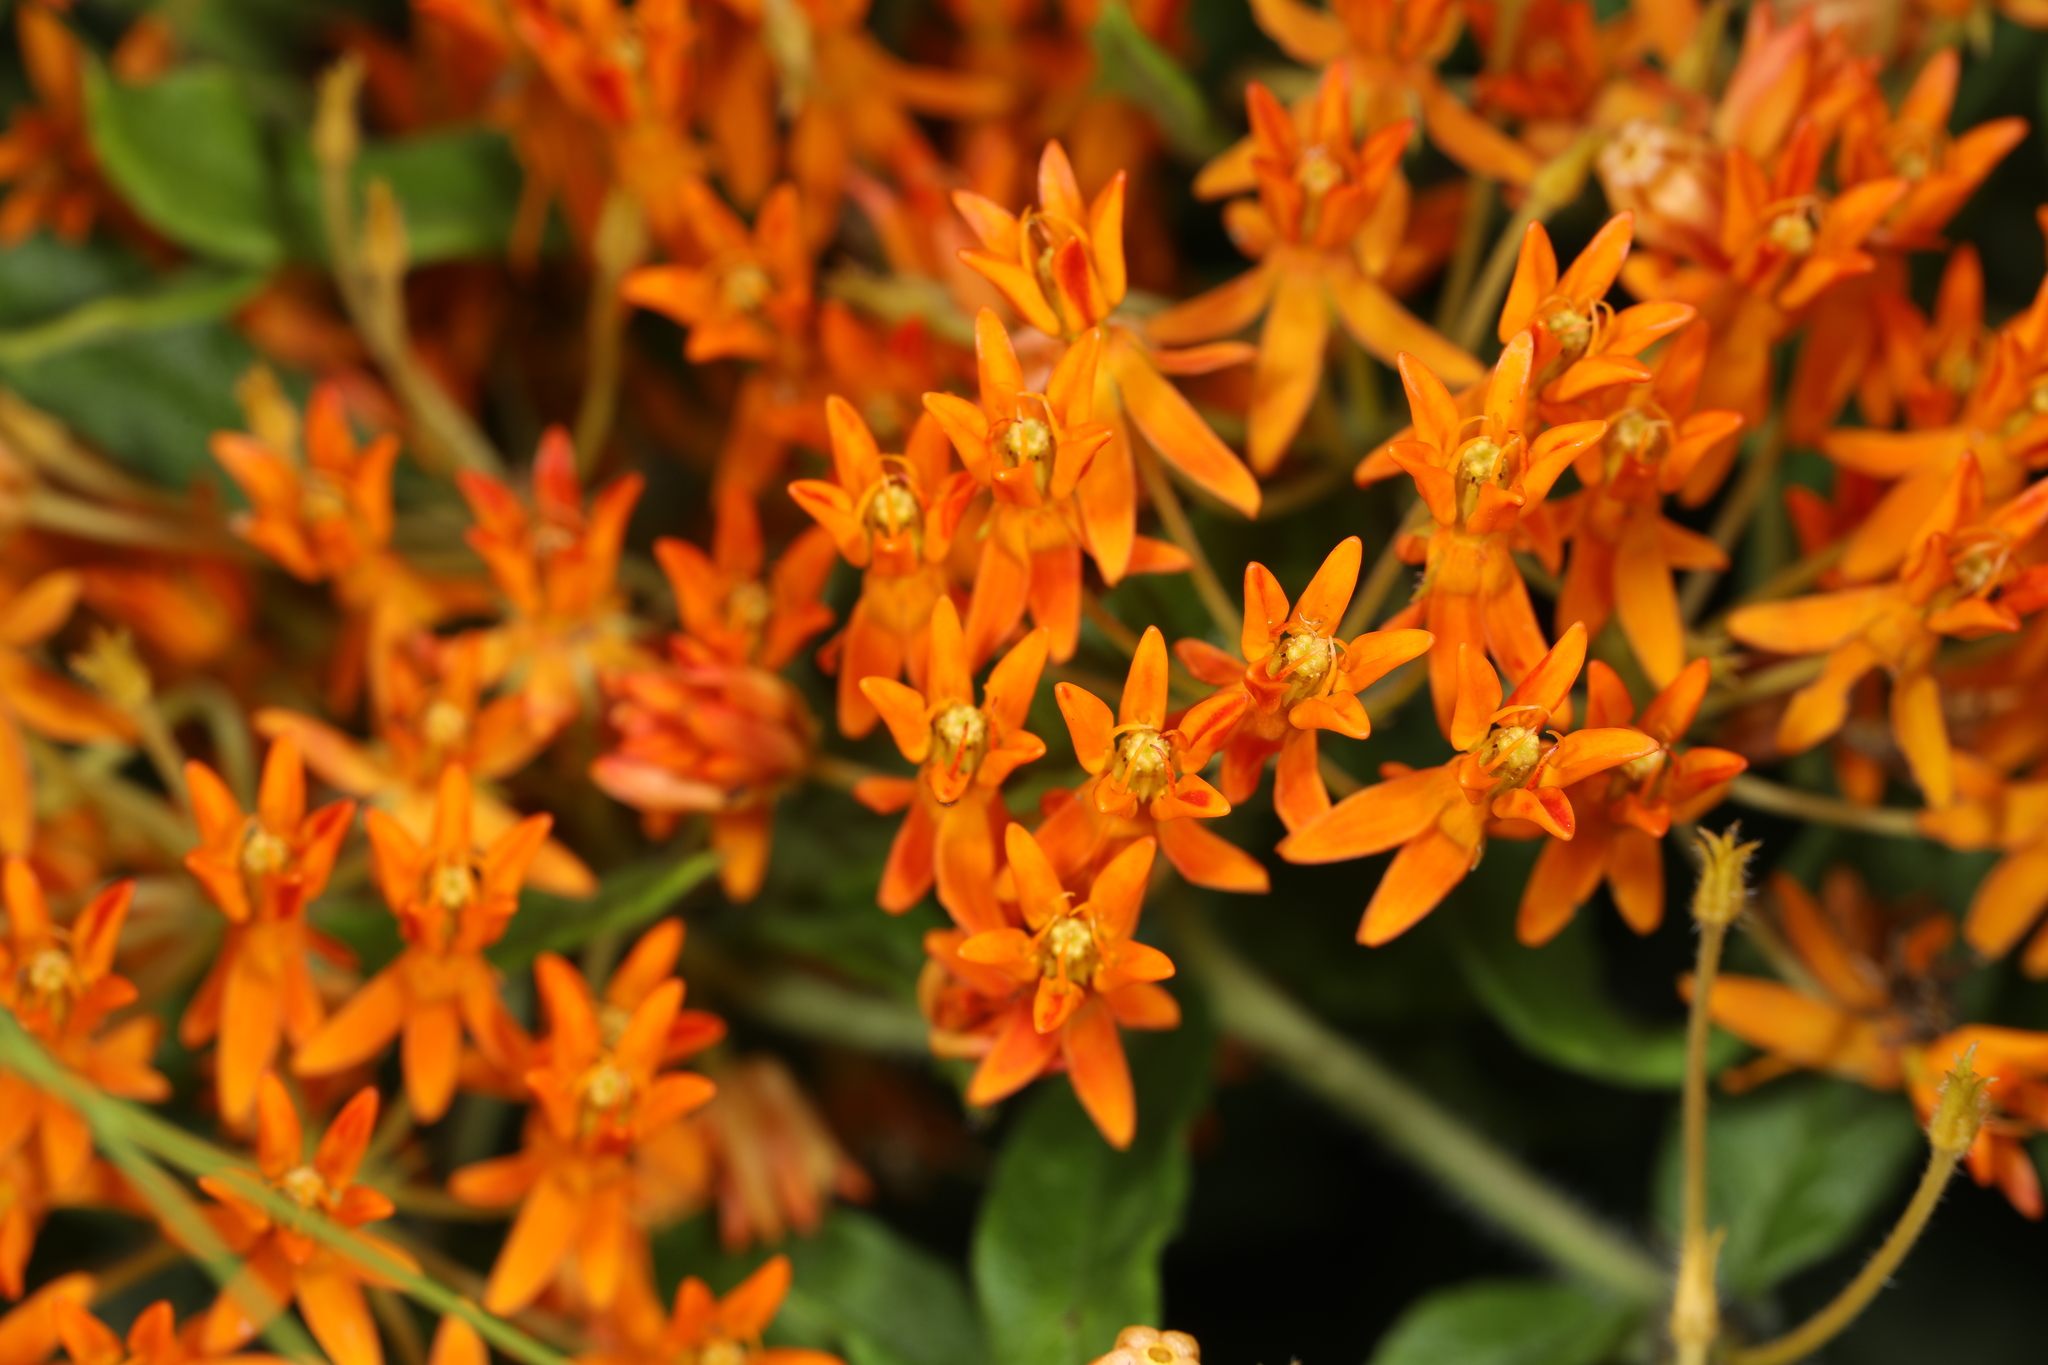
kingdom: Plantae
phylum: Tracheophyta
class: Magnoliopsida
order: Gentianales
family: Apocynaceae
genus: Asclepias
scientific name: Asclepias tuberosa
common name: Butterfly milkweed
